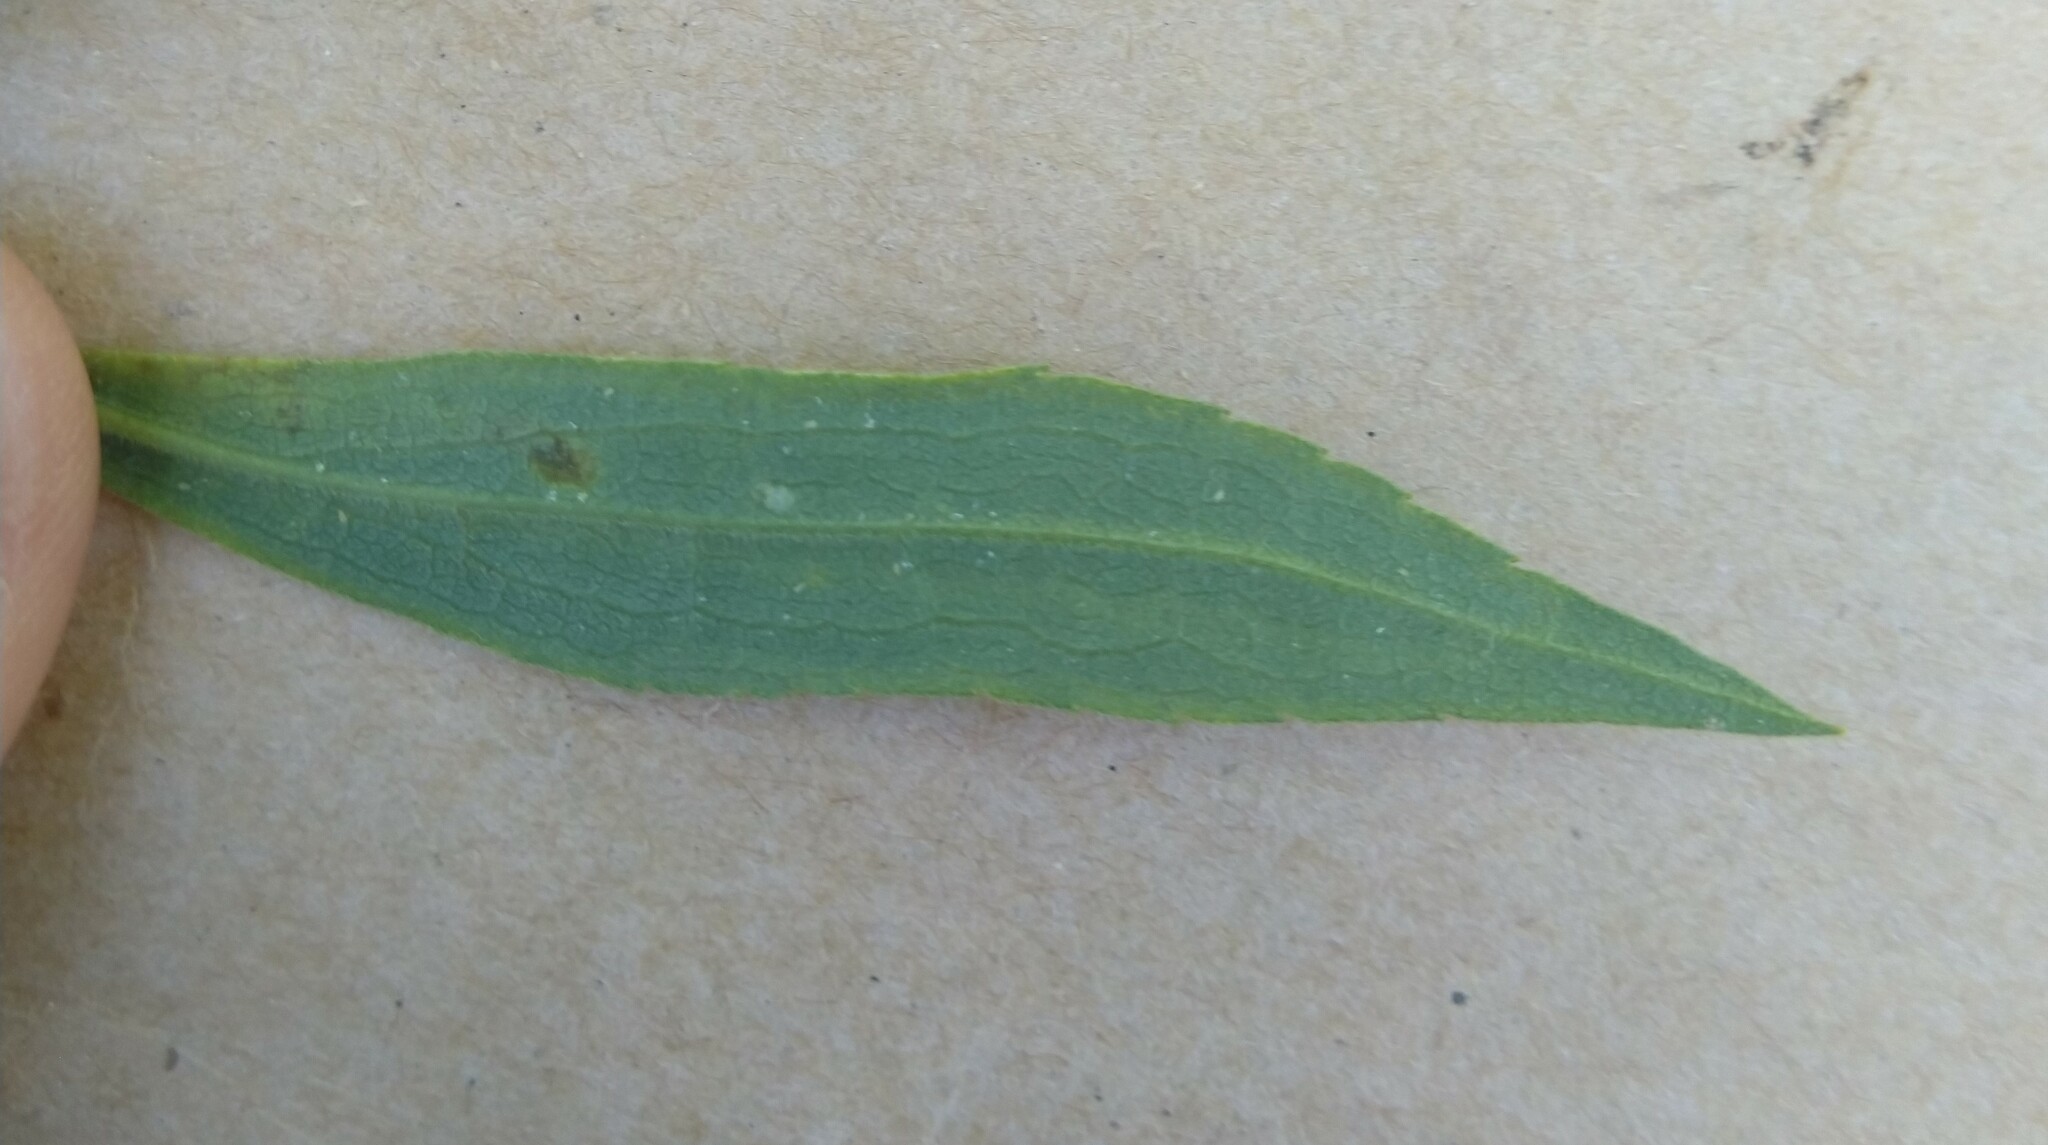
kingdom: Animalia
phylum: Arthropoda
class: Insecta
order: Diptera
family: Agromyzidae
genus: Ophiomyia
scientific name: Ophiomyia maura
